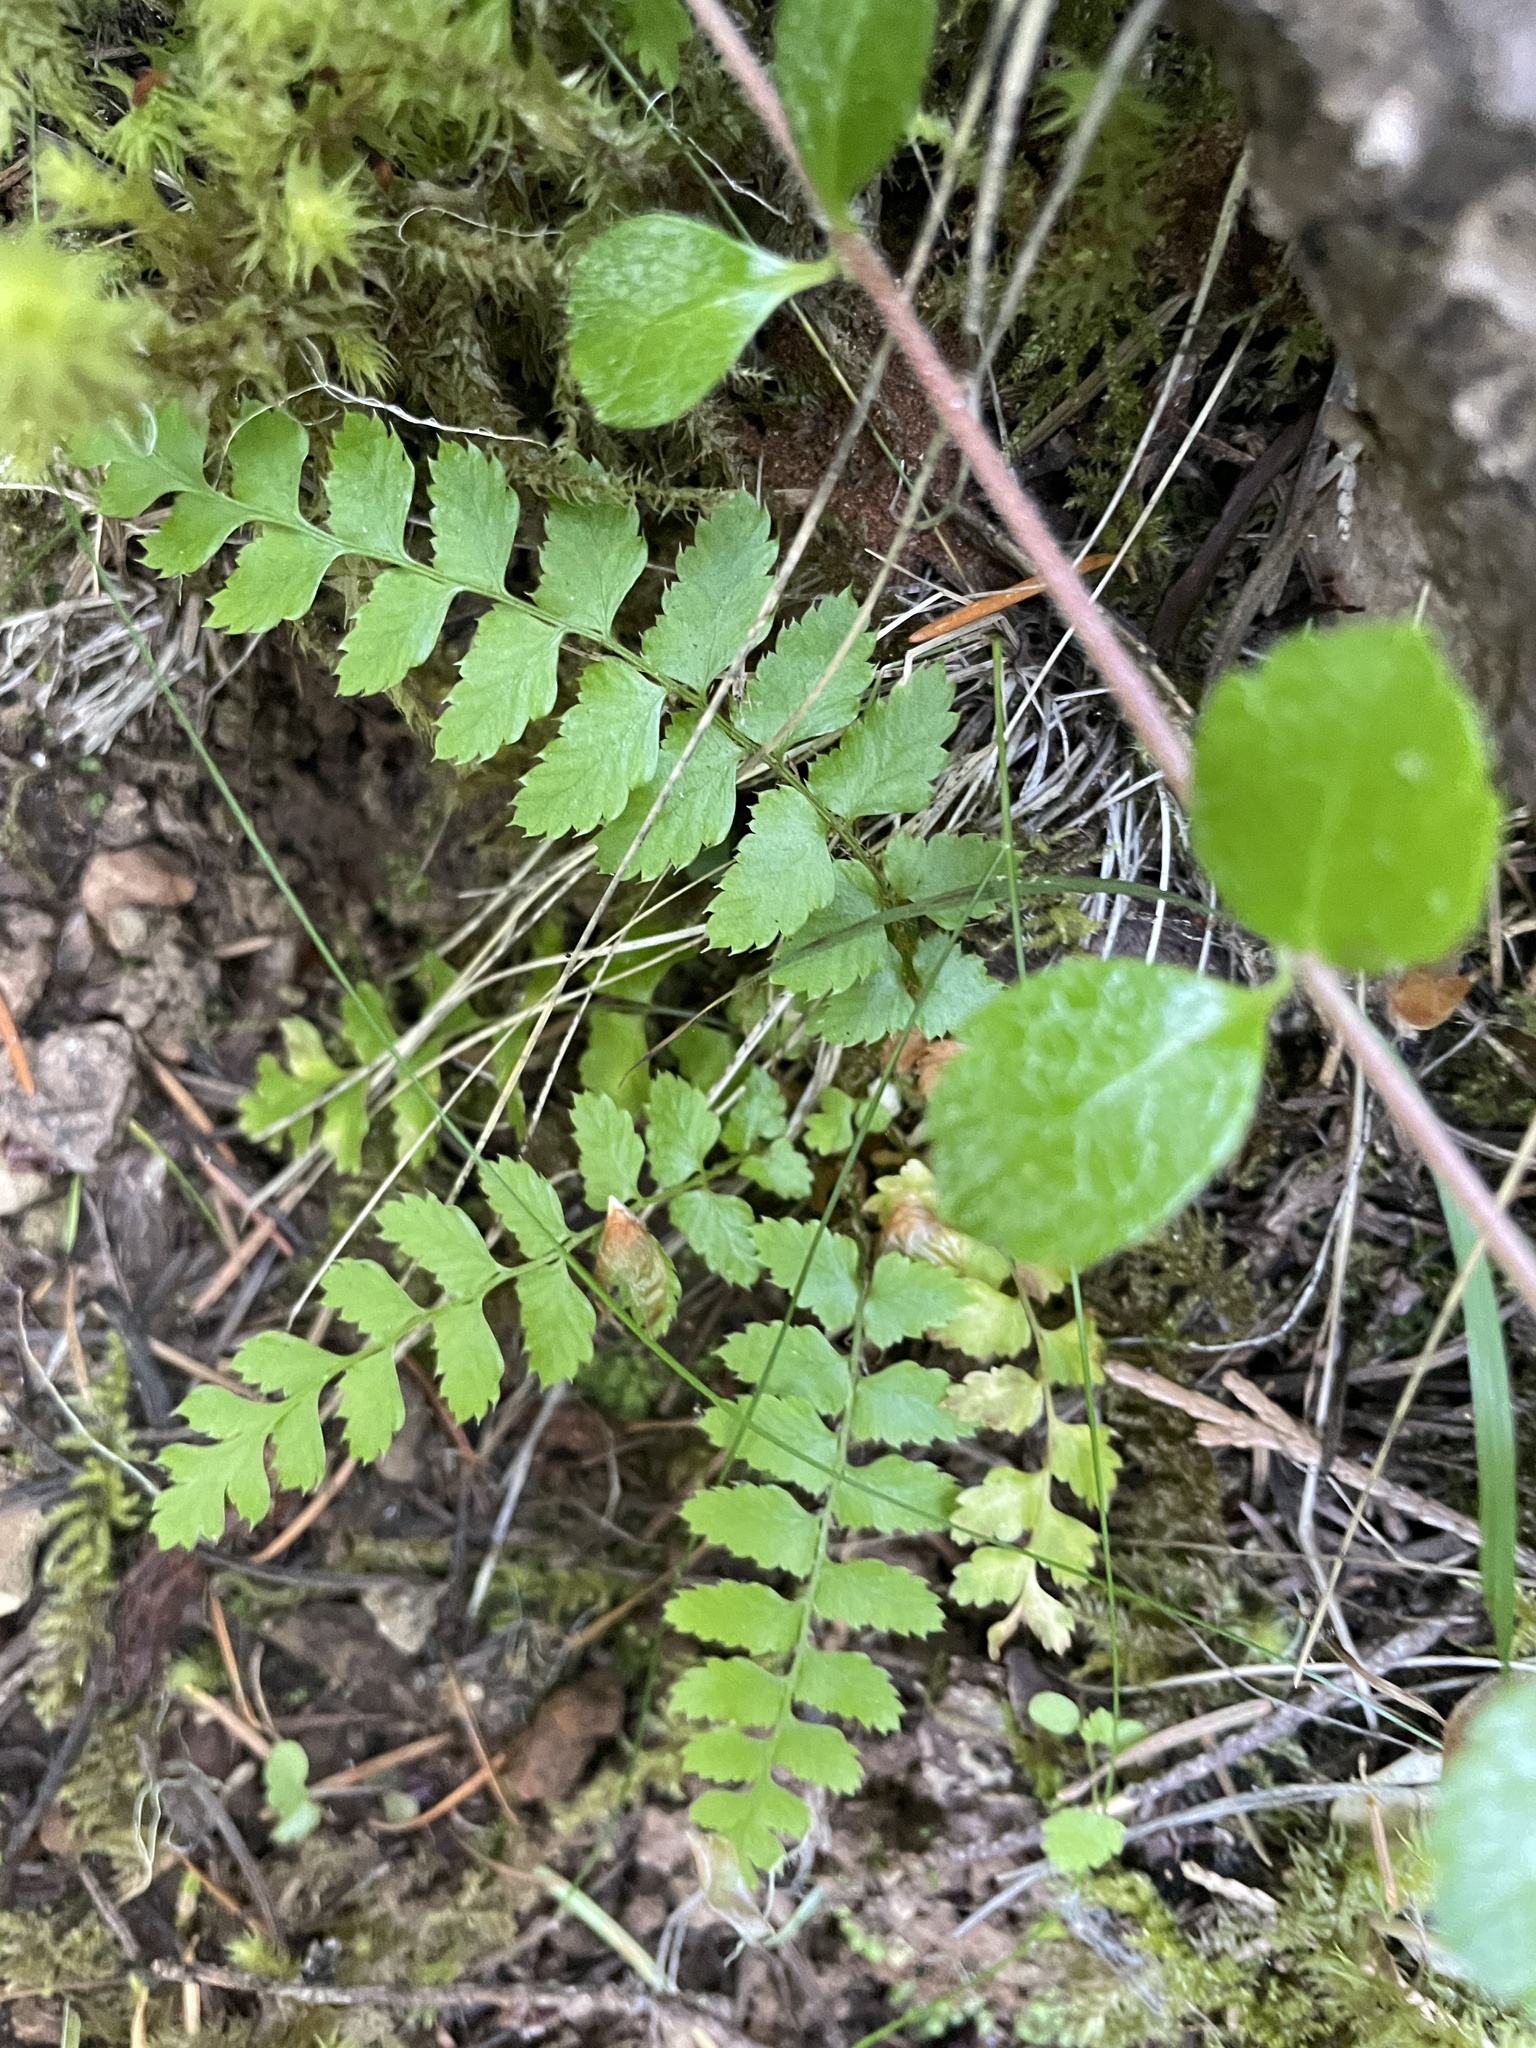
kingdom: Plantae
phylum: Tracheophyta
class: Polypodiopsida
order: Polypodiales
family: Dryopteridaceae
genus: Polystichum
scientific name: Polystichum munitum
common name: Western sword-fern
